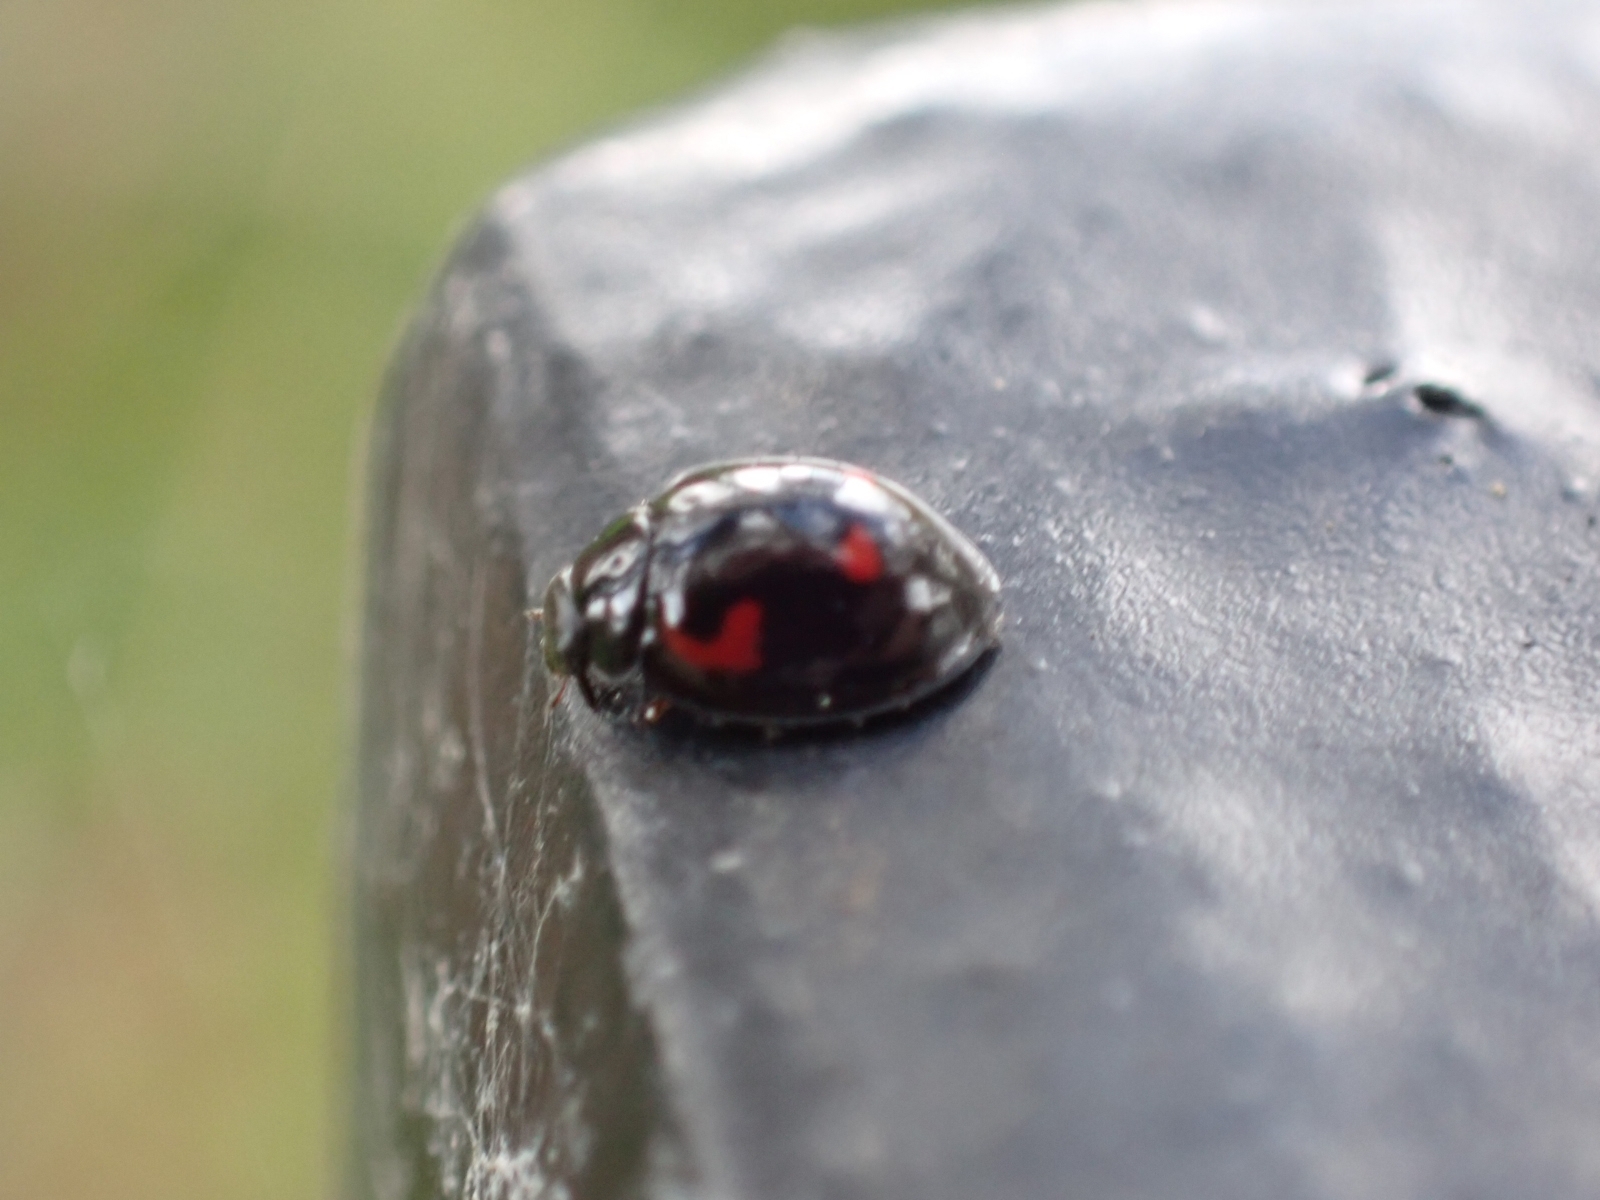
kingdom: Animalia
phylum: Arthropoda
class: Insecta
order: Coleoptera
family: Coccinellidae
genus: Brumus
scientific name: Brumus quadripustulatus
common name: Ladybird beetle
